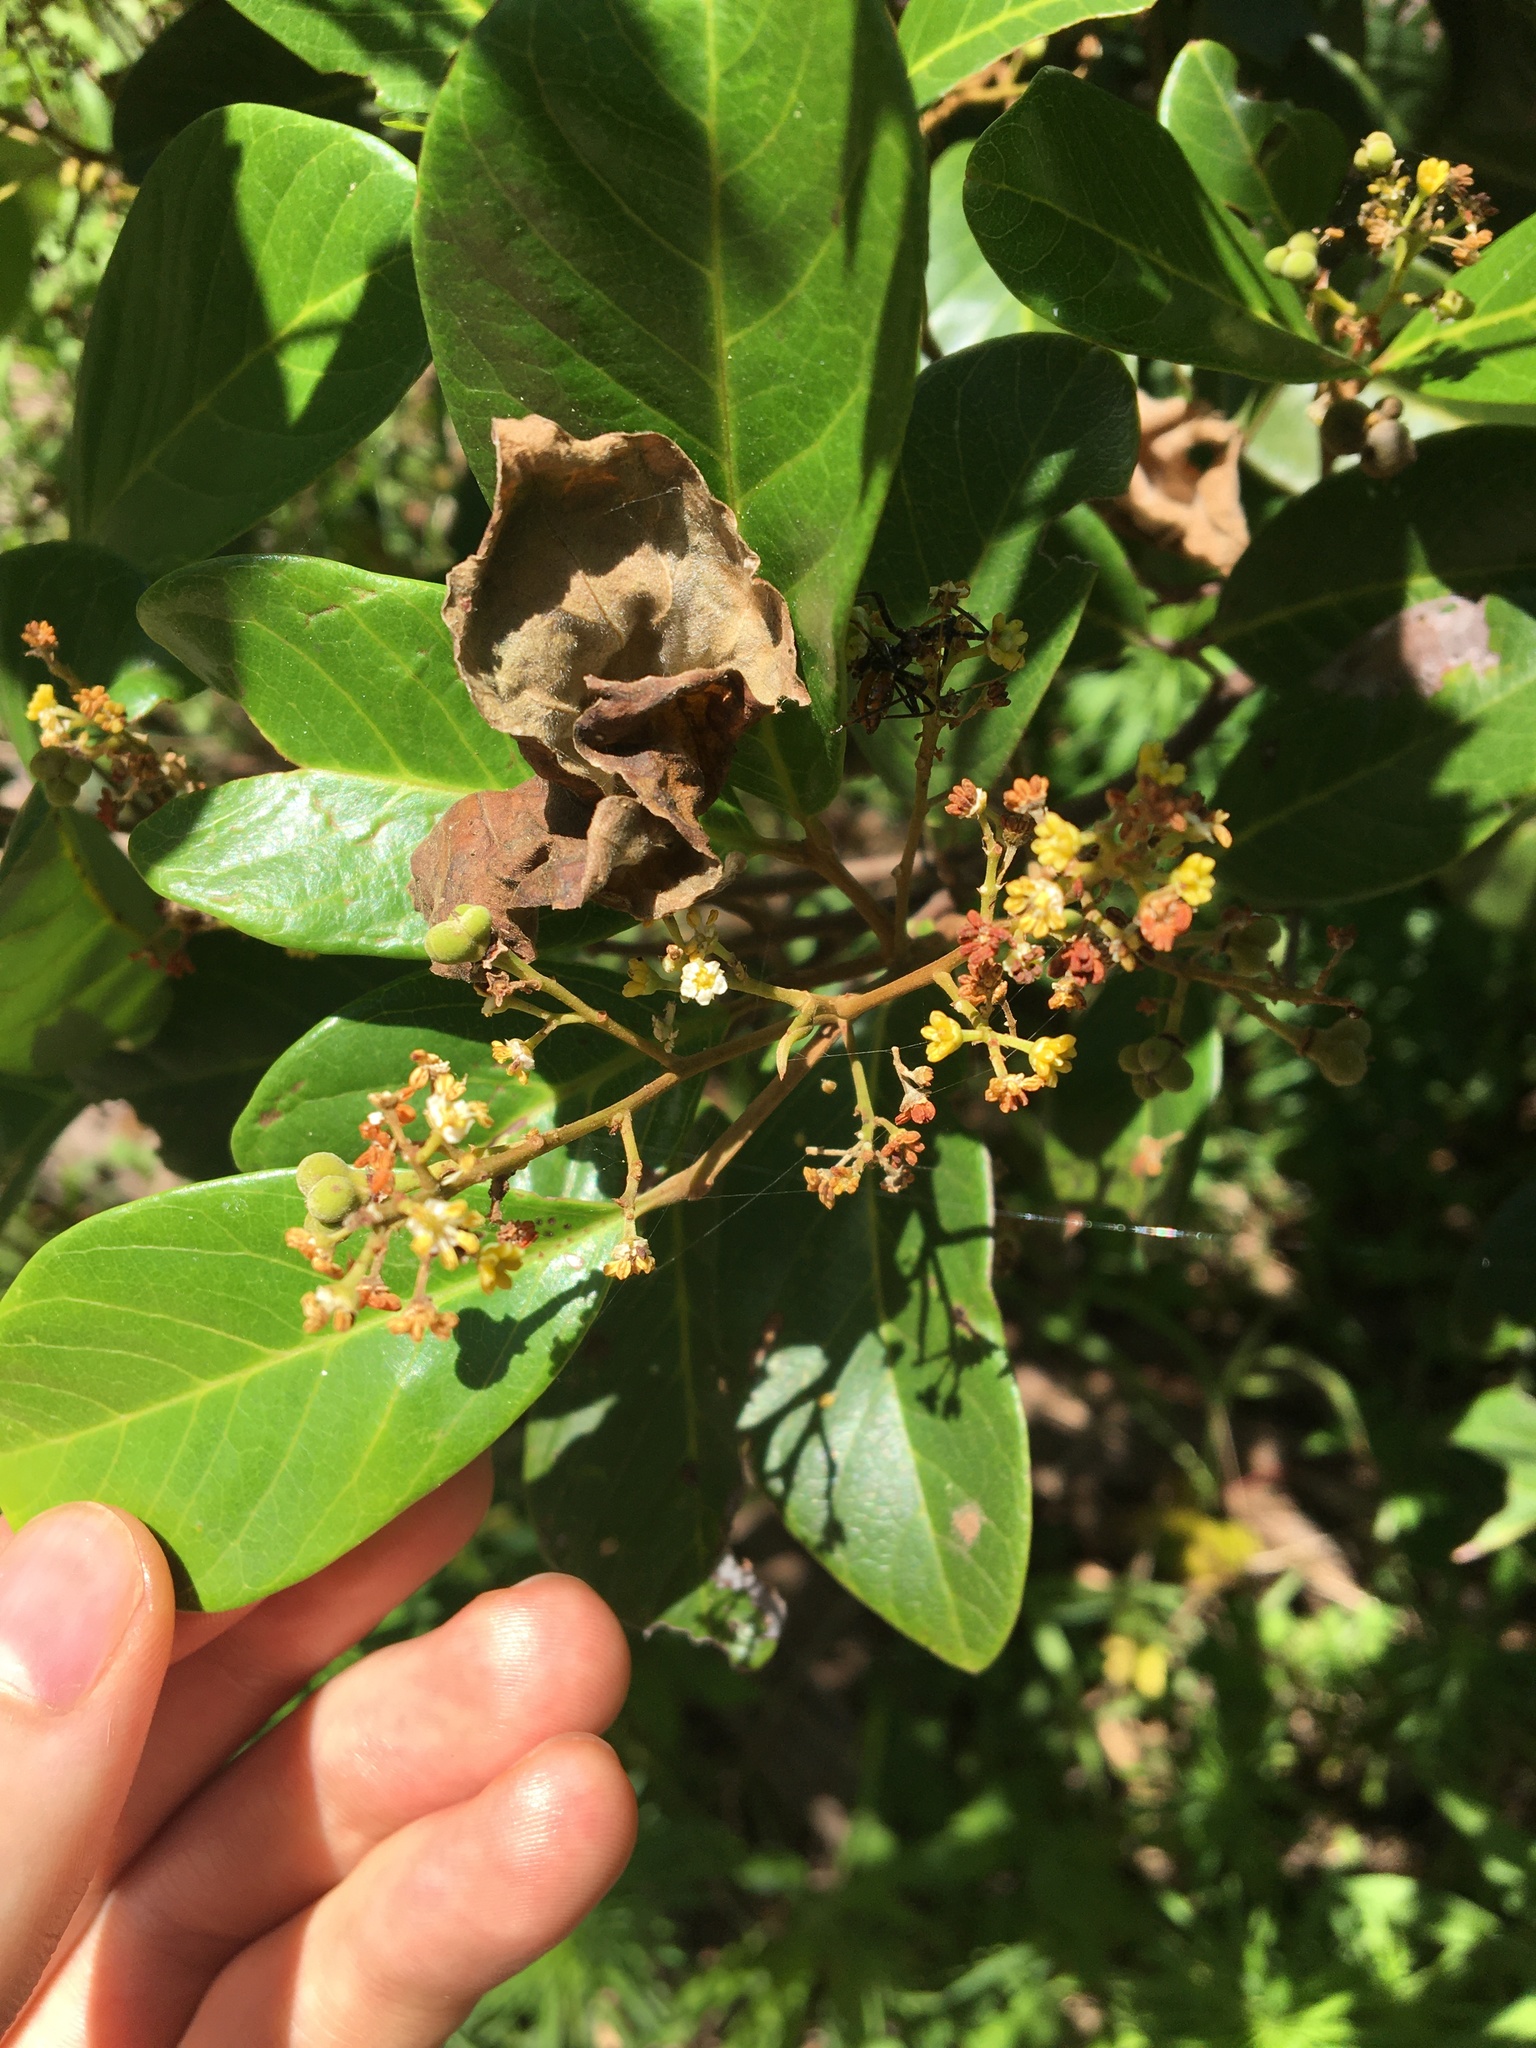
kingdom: Plantae
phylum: Tracheophyta
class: Magnoliopsida
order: Sapindales
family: Sapindaceae
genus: Alectryon
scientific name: Alectryon coriaceus
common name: Beach alectryon
